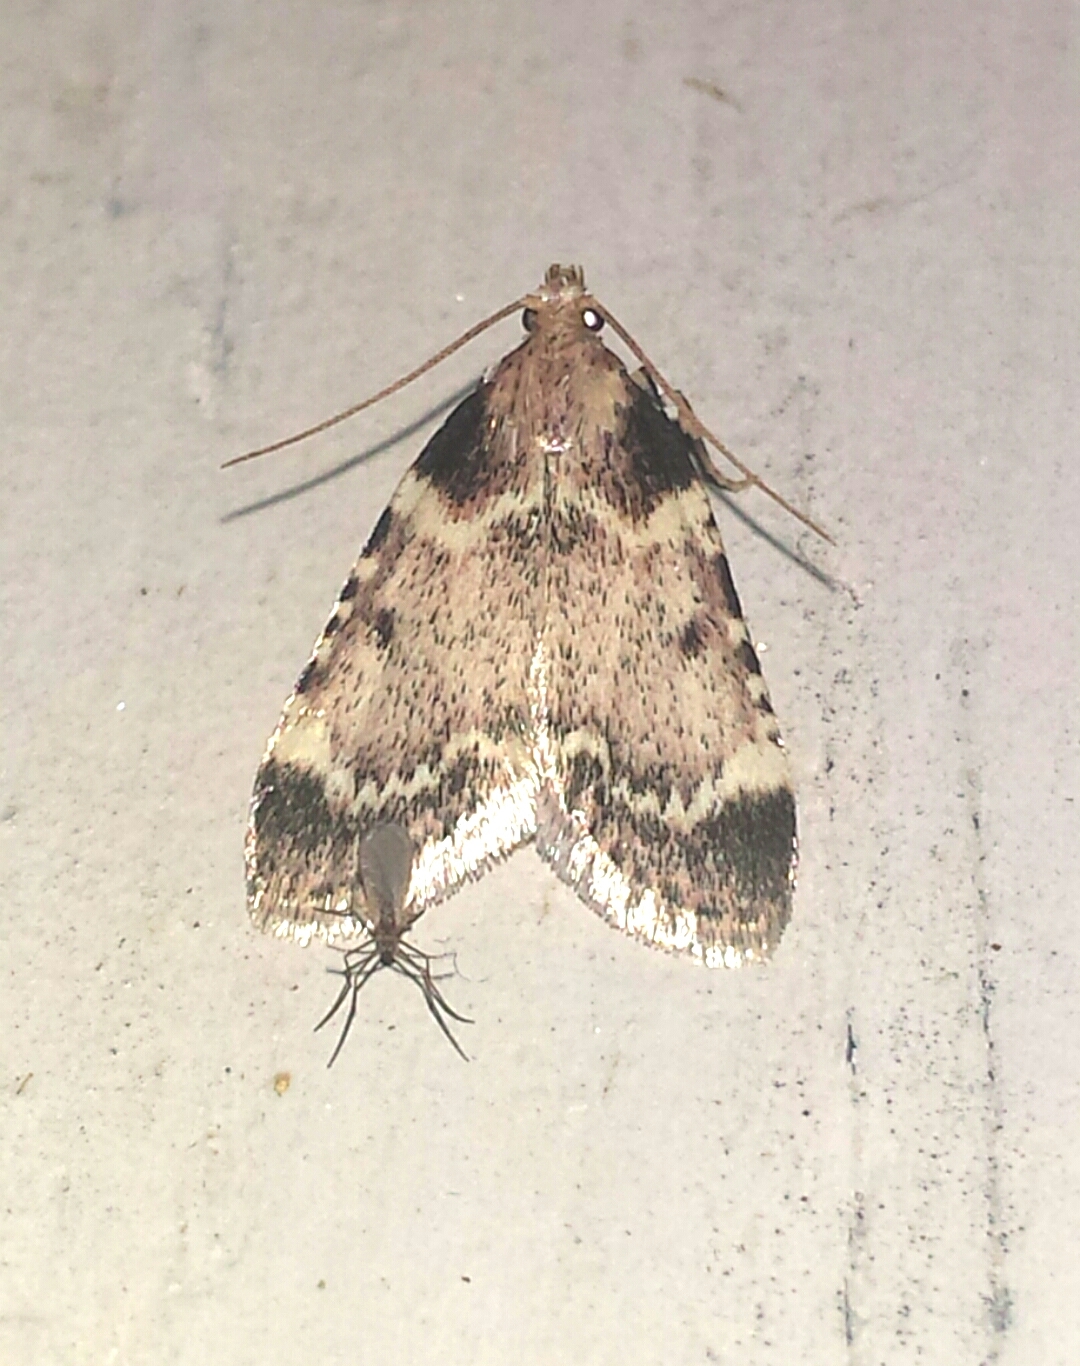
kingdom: Animalia
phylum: Arthropoda
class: Insecta
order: Lepidoptera
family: Pyralidae
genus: Aglossa
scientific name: Aglossa costiferalis
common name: Calico pyralid moth
